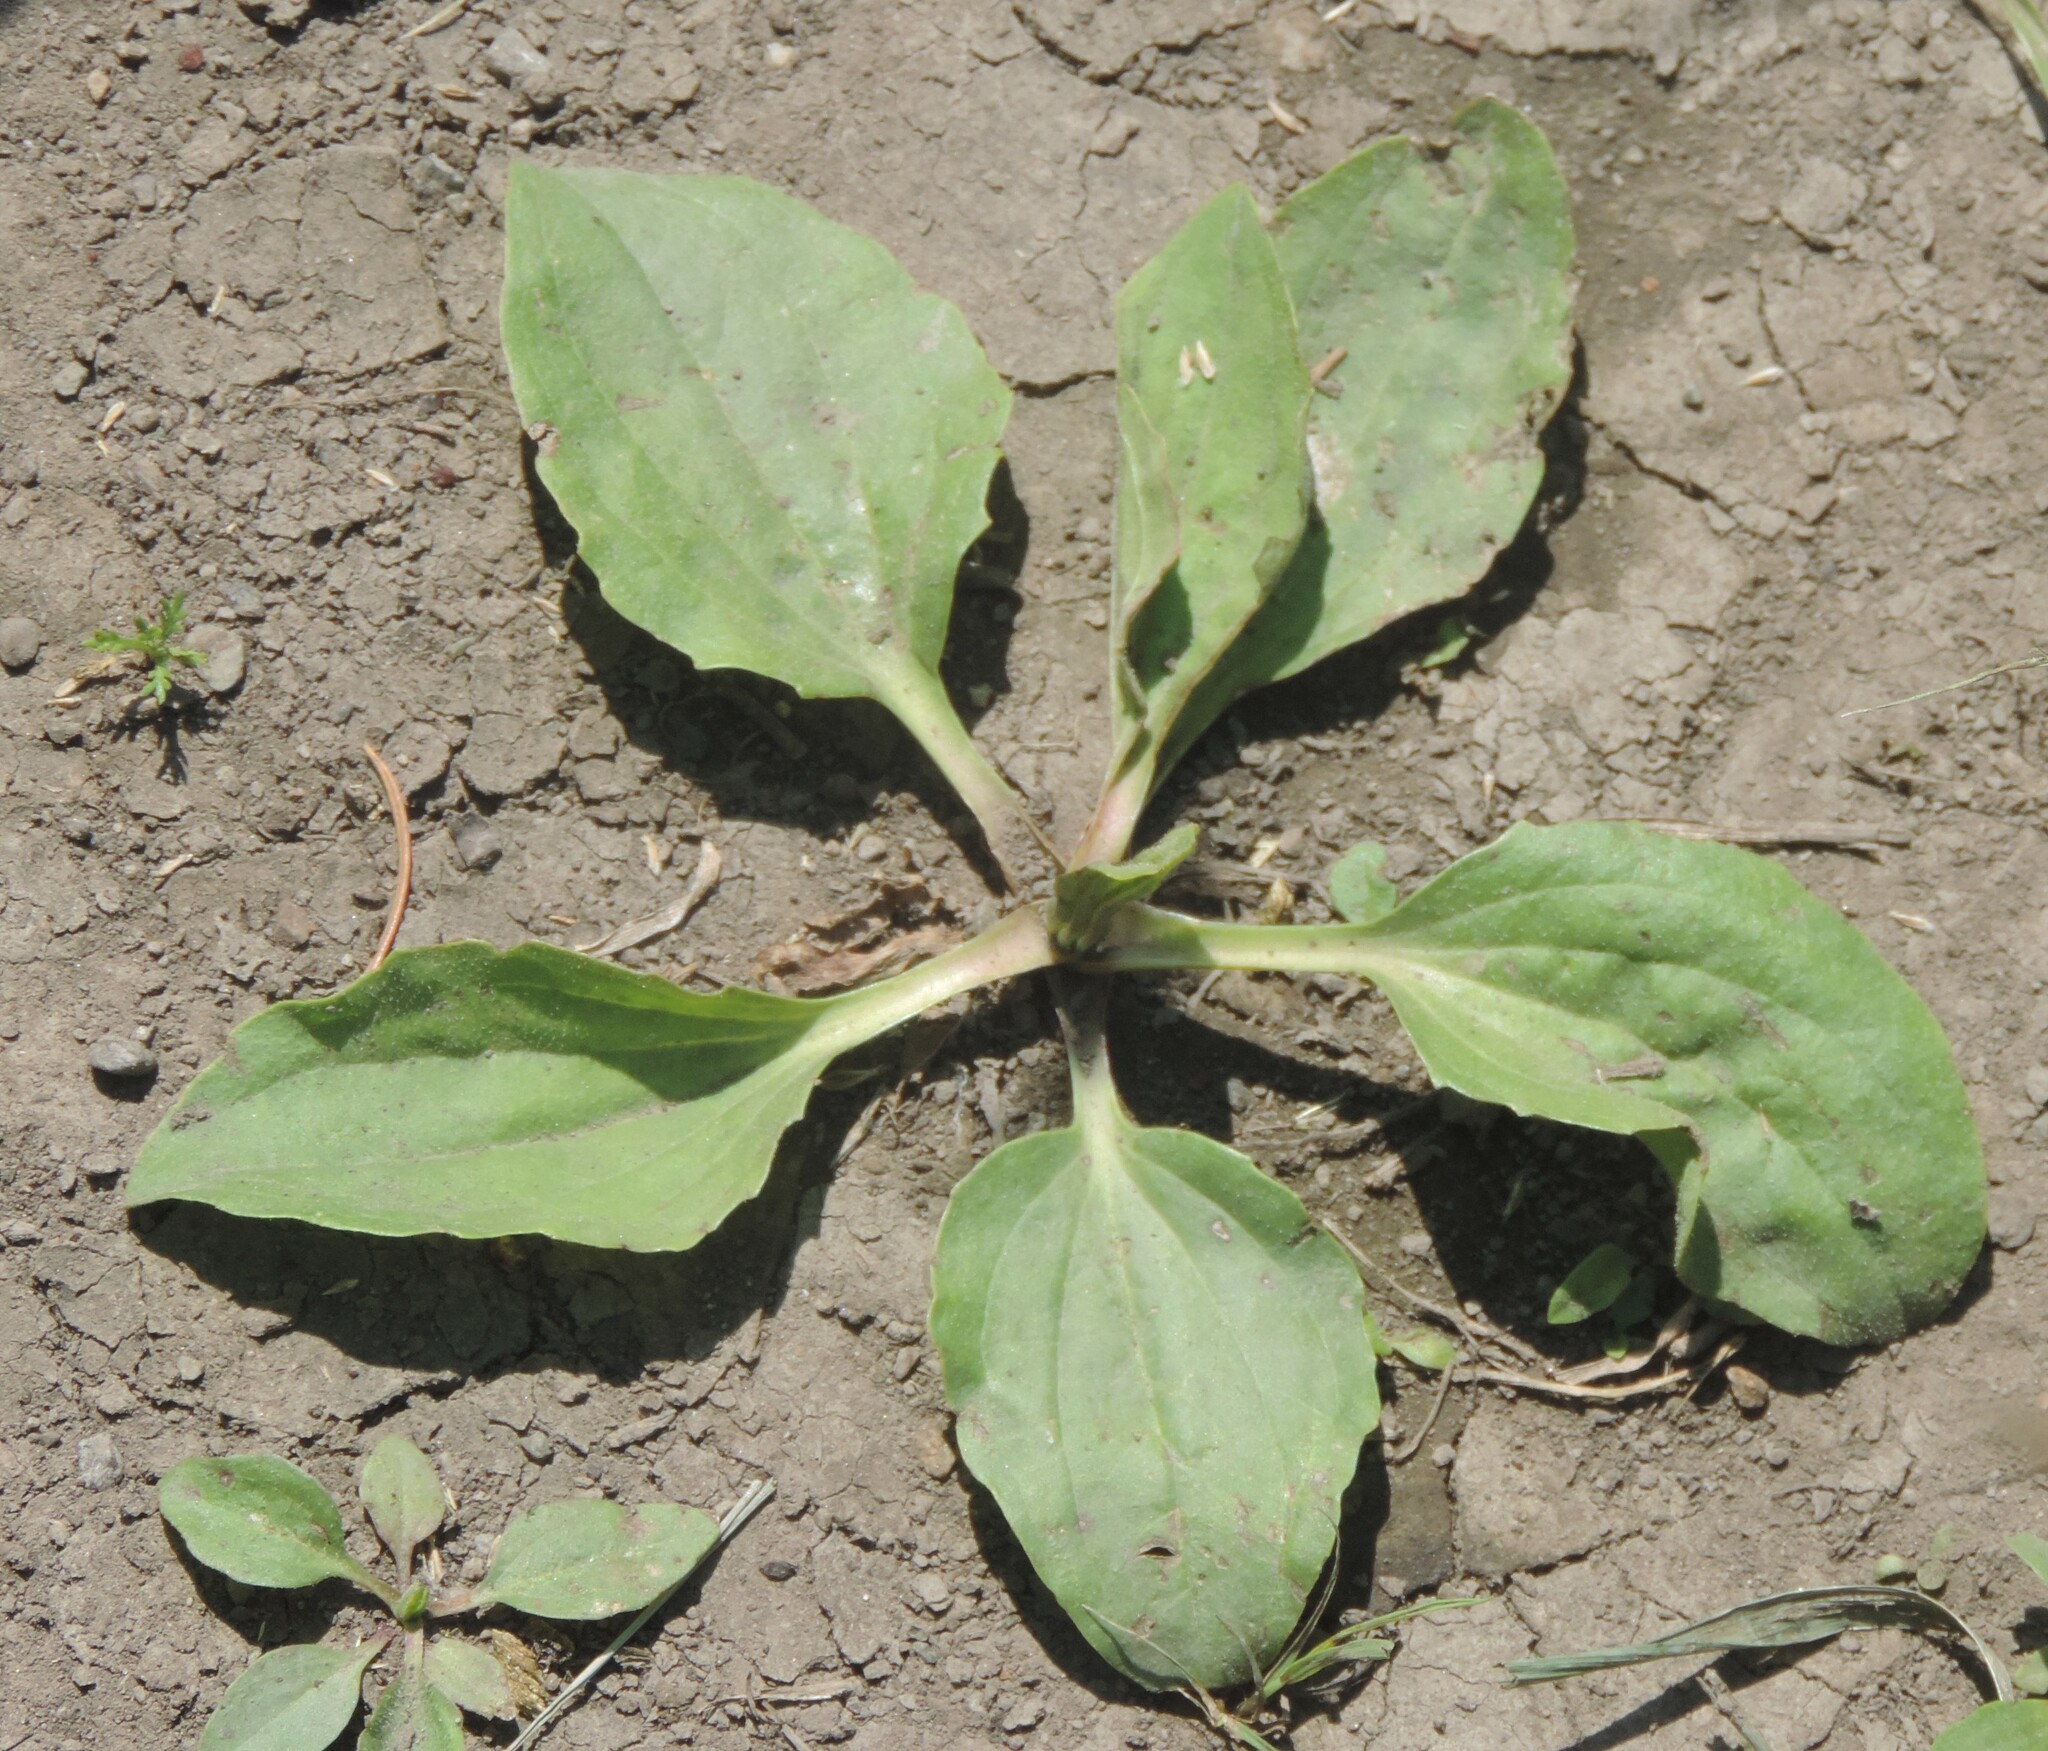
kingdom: Plantae
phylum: Tracheophyta
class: Magnoliopsida
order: Lamiales
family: Plantaginaceae
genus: Plantago
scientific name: Plantago major
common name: Common plantain
